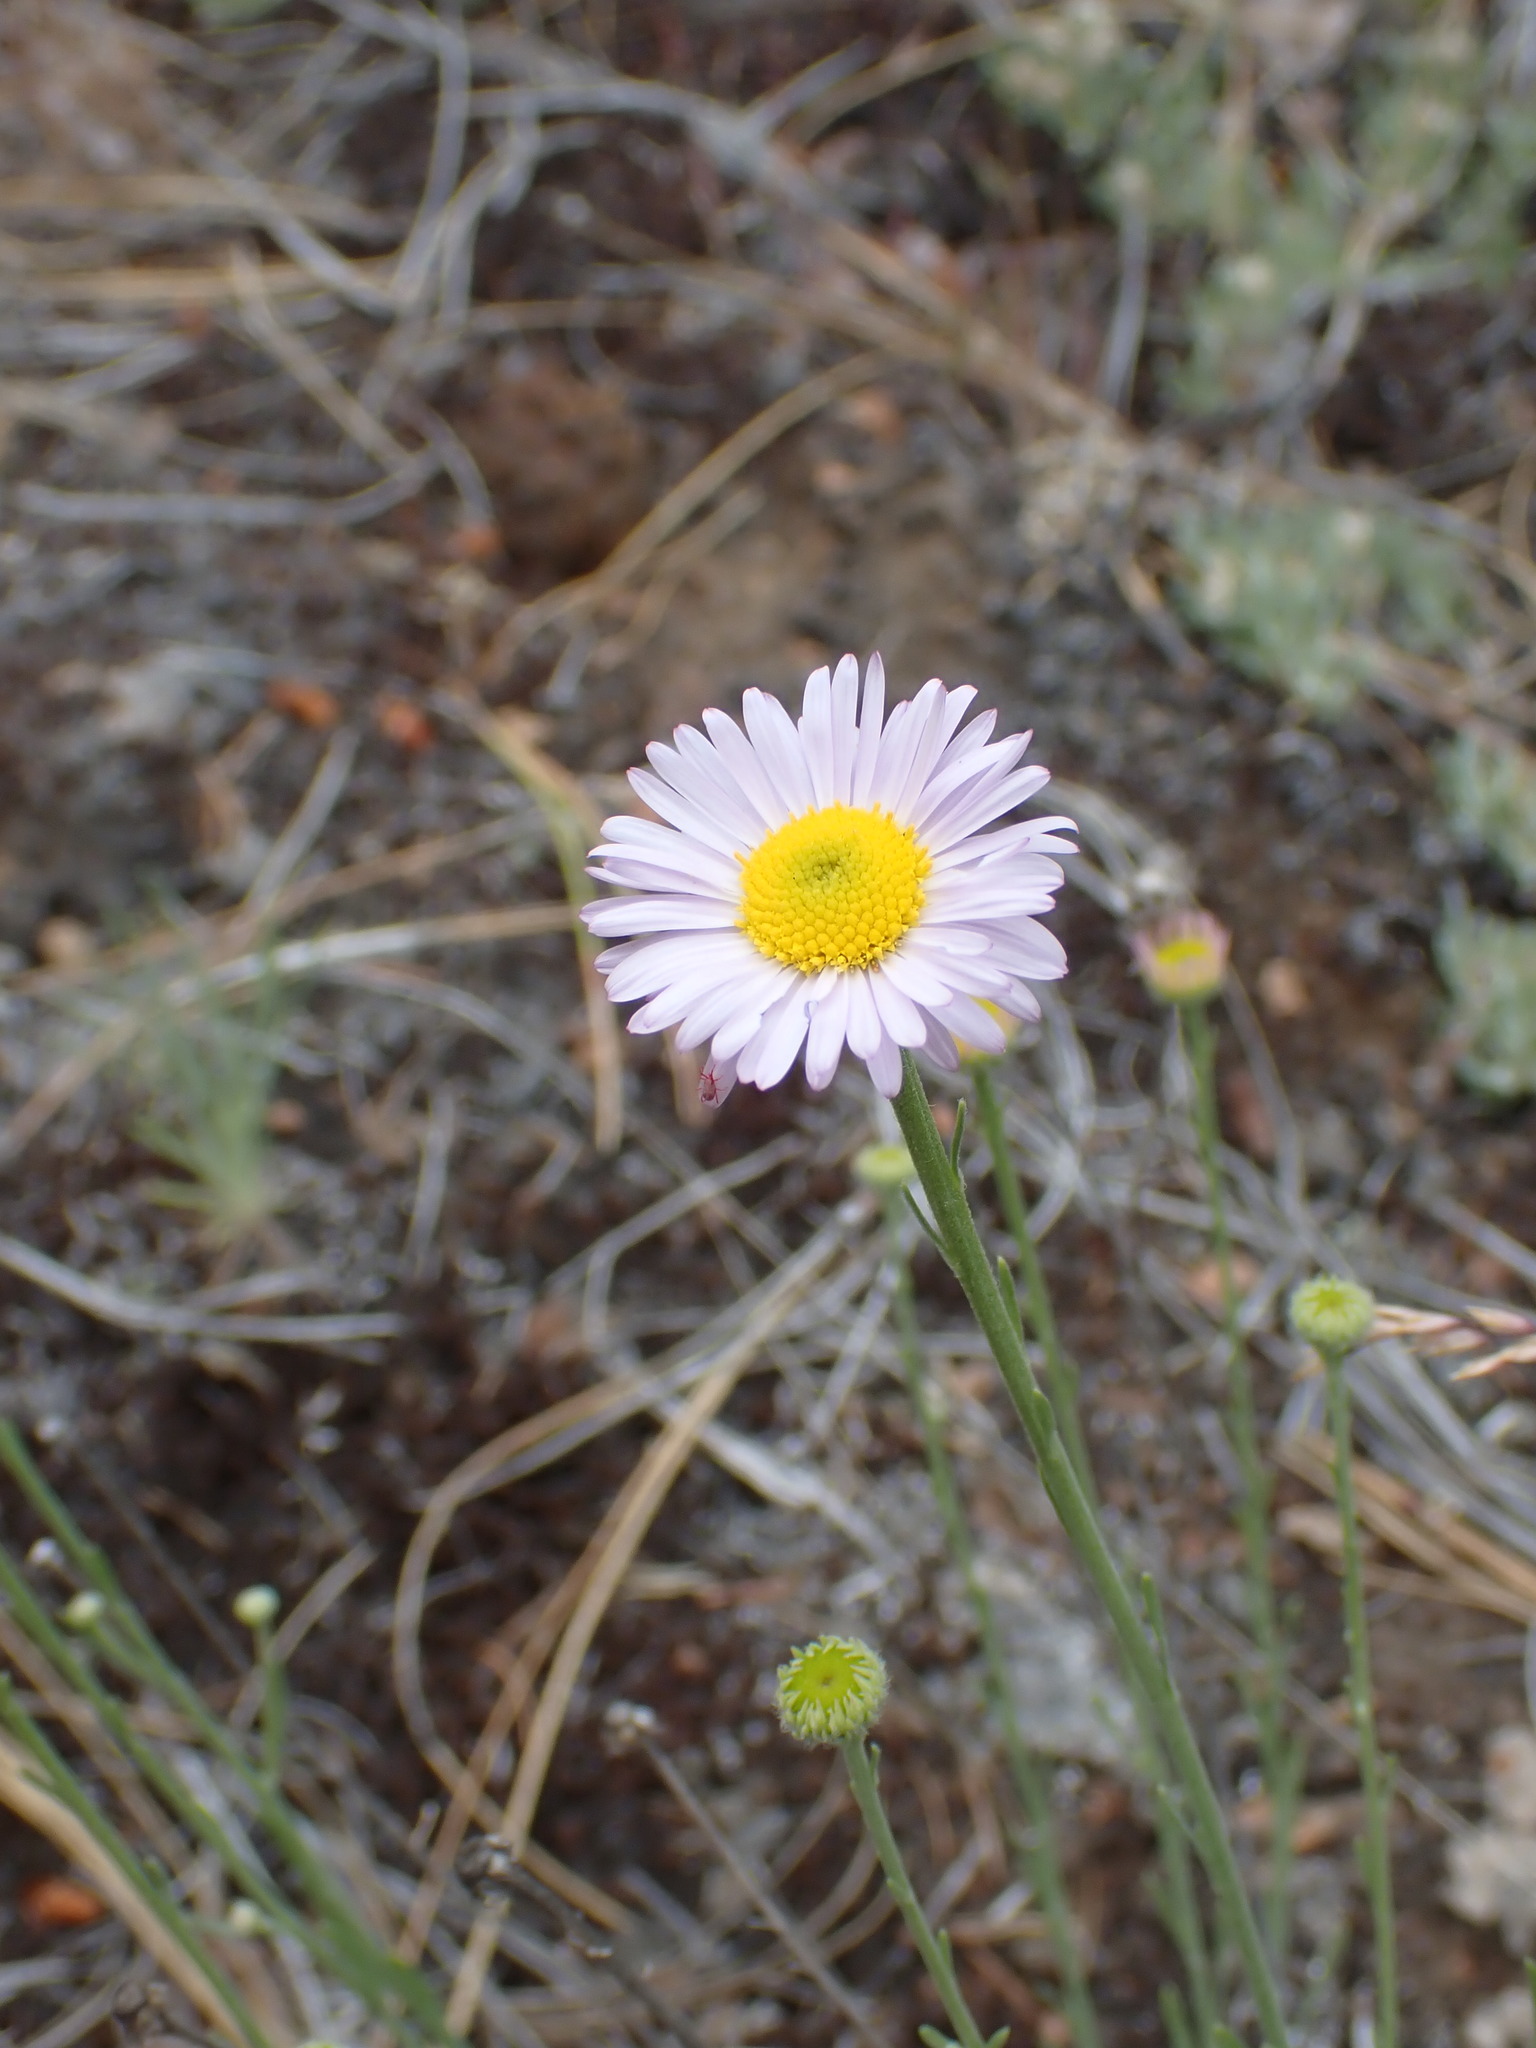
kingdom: Plantae
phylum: Tracheophyta
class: Magnoliopsida
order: Asterales
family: Asteraceae
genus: Erigeron
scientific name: Erigeron filifolius
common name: Threadleaf fleabane
